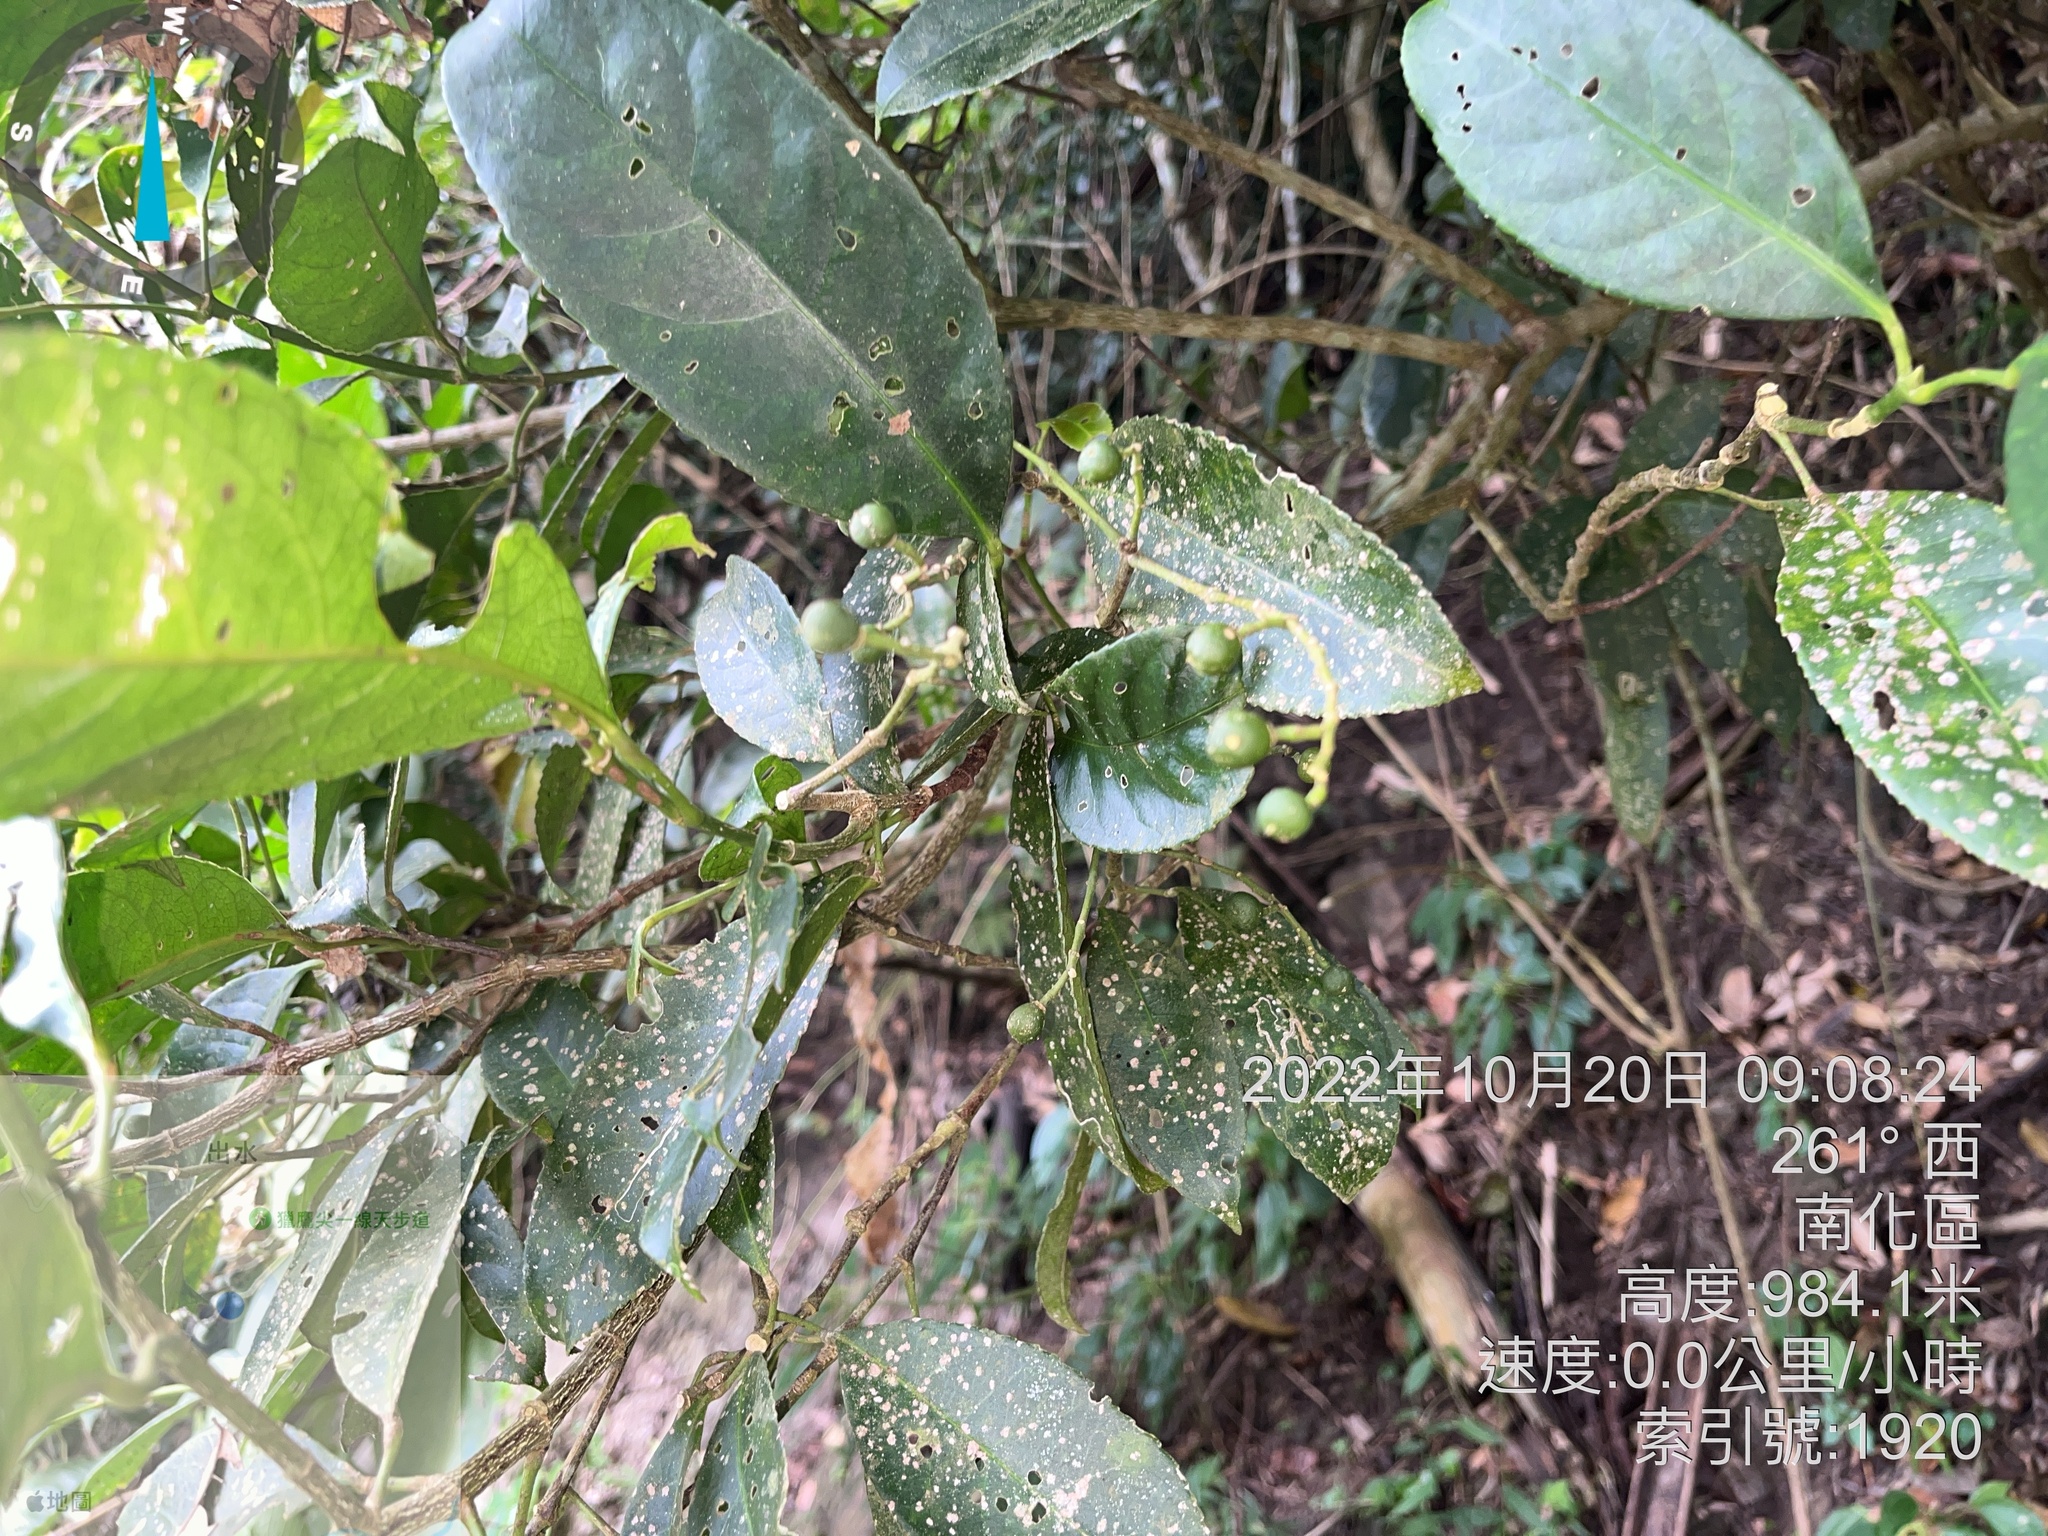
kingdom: Plantae
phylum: Tracheophyta
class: Magnoliopsida
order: Crossosomatales
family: Staphyleaceae
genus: Turpinia
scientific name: Turpinia formosana
